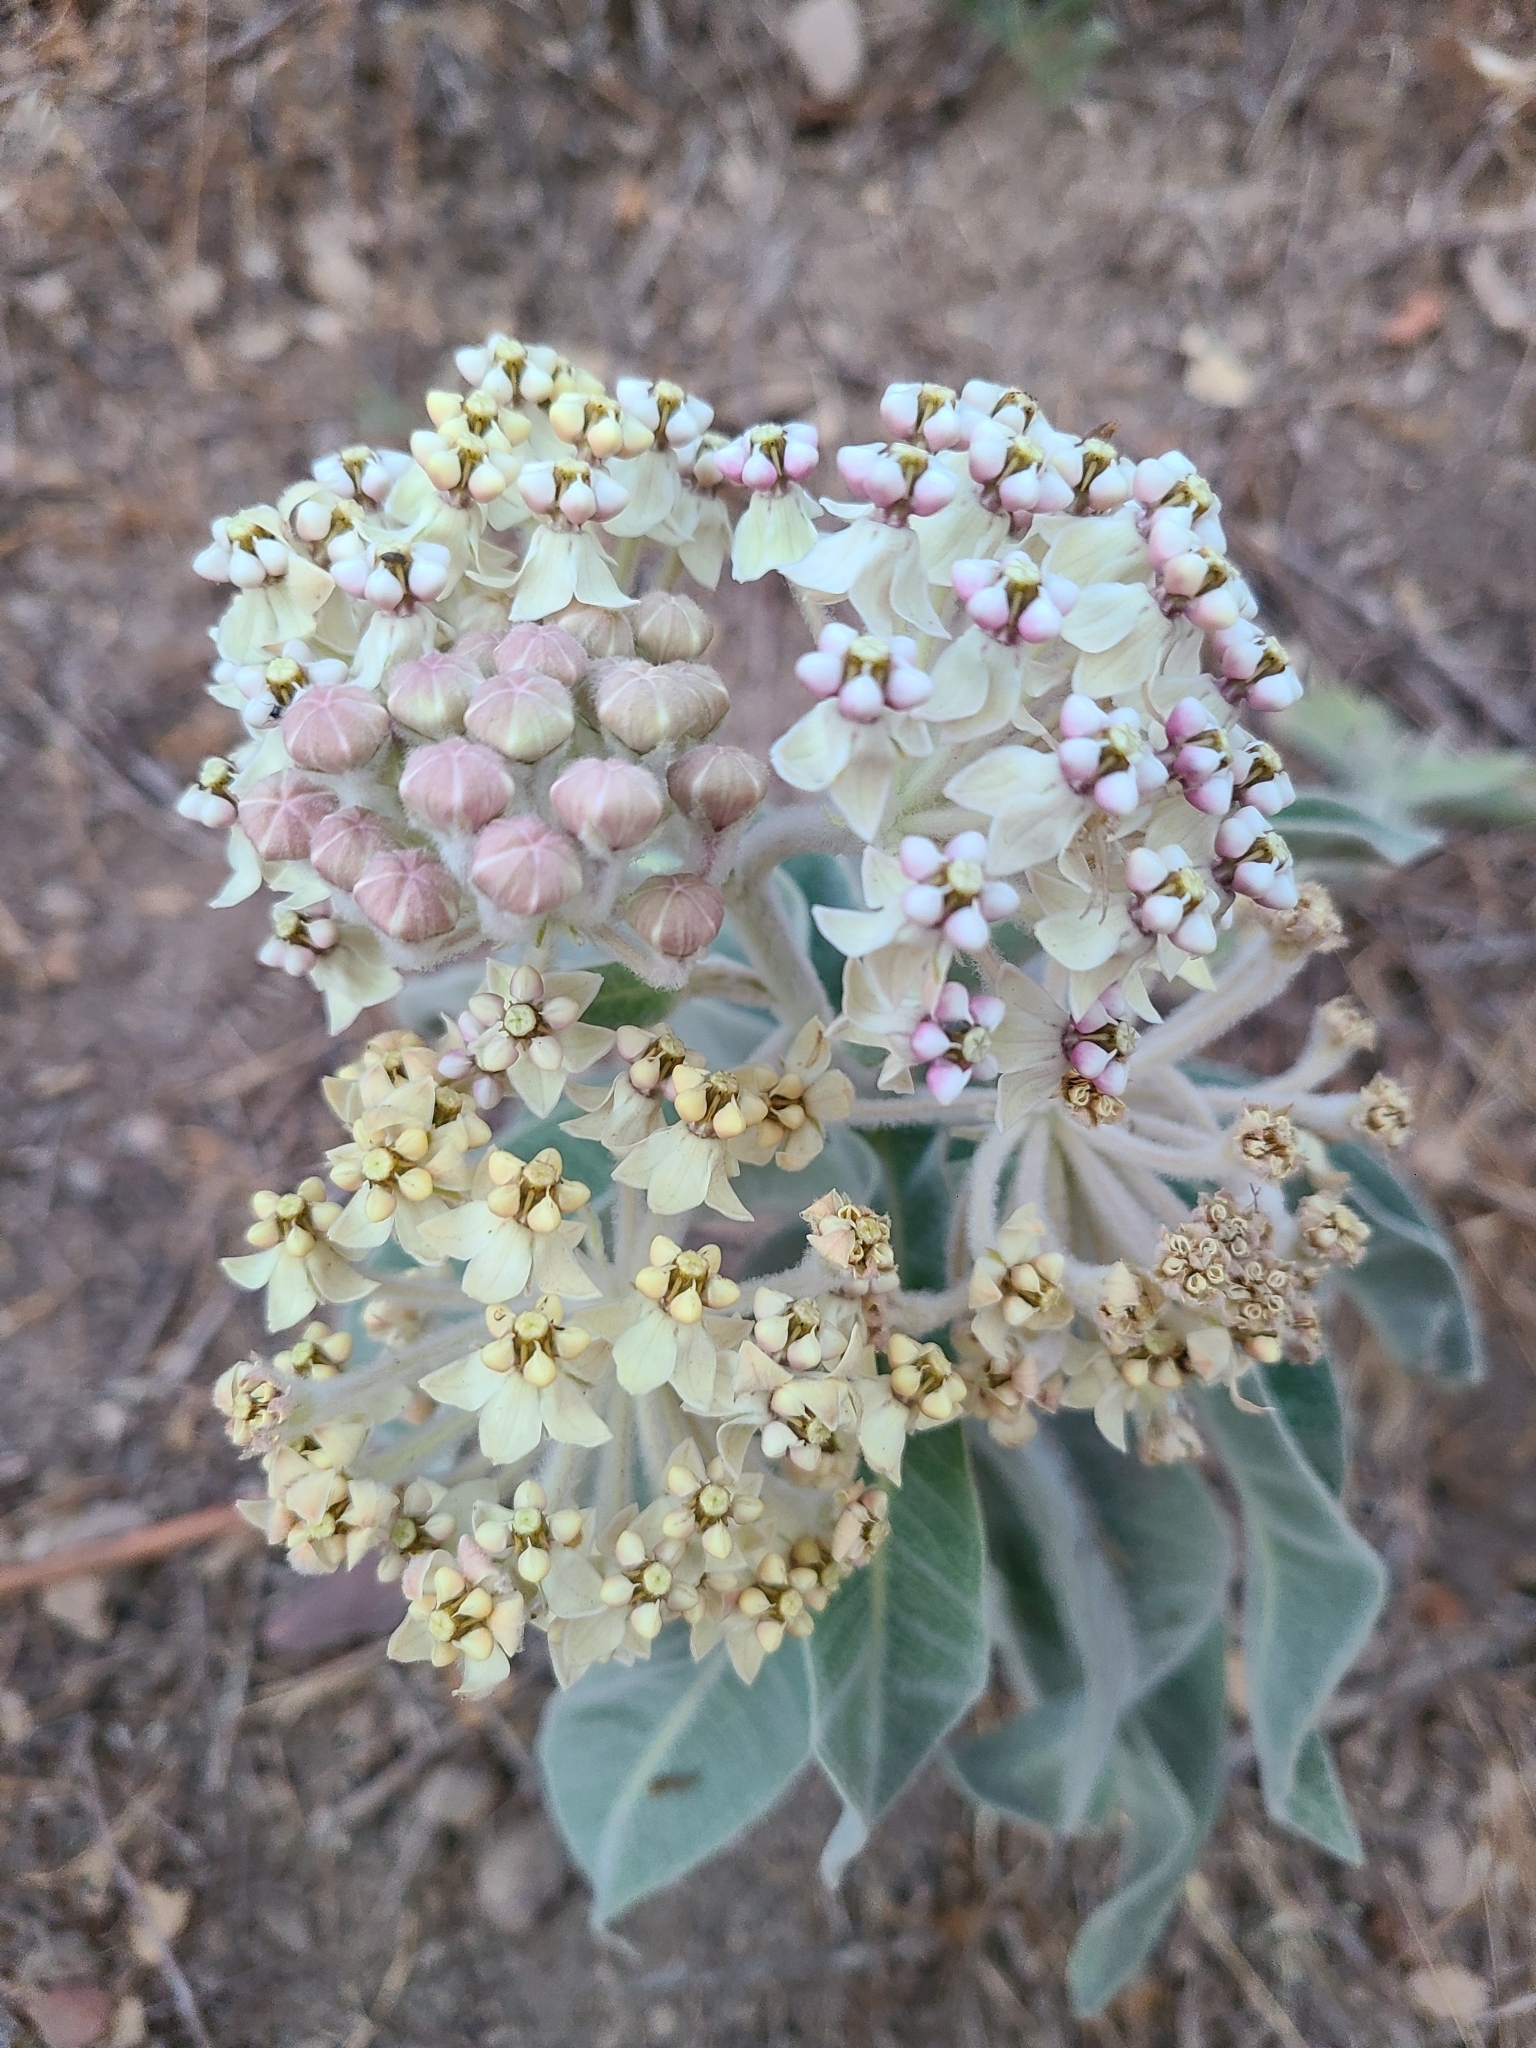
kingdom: Plantae
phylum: Tracheophyta
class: Magnoliopsida
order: Gentianales
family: Apocynaceae
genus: Asclepias
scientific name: Asclepias eriocarpa
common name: Indian milkweed
